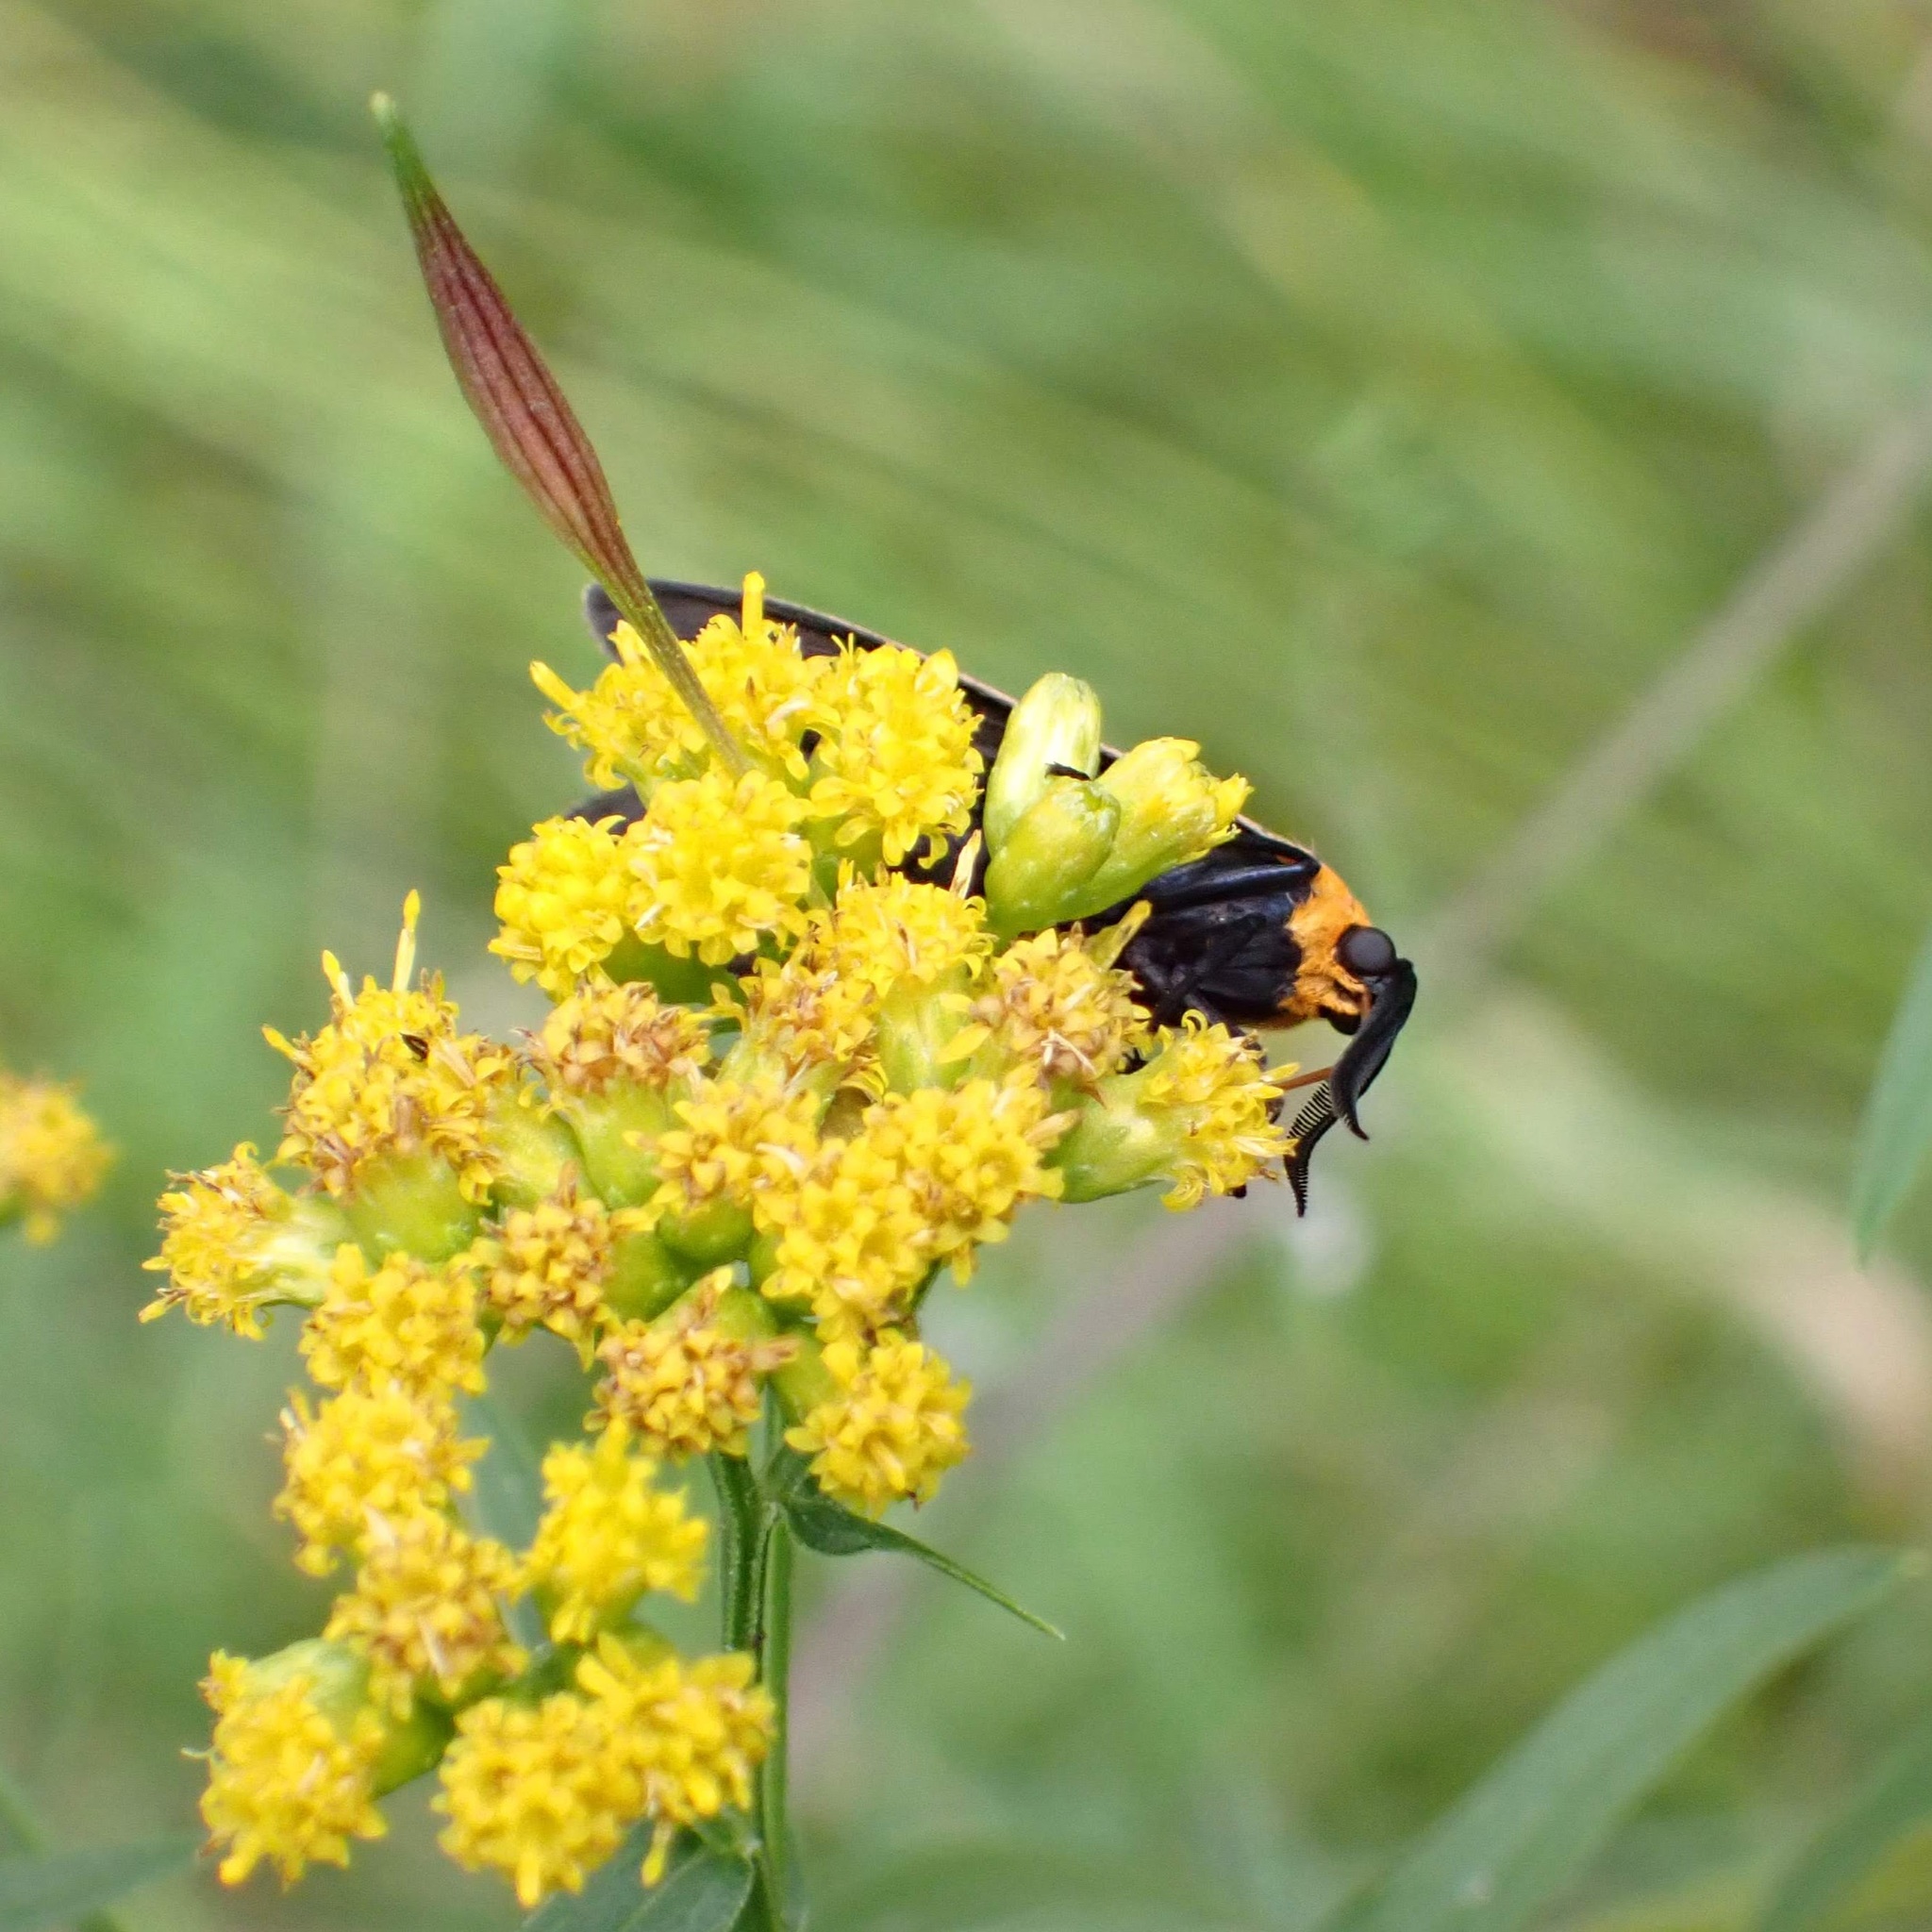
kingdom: Animalia
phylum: Arthropoda
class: Insecta
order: Lepidoptera
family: Erebidae
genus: Cisseps
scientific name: Cisseps fulvicollis
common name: Yellow-collared scape moth
